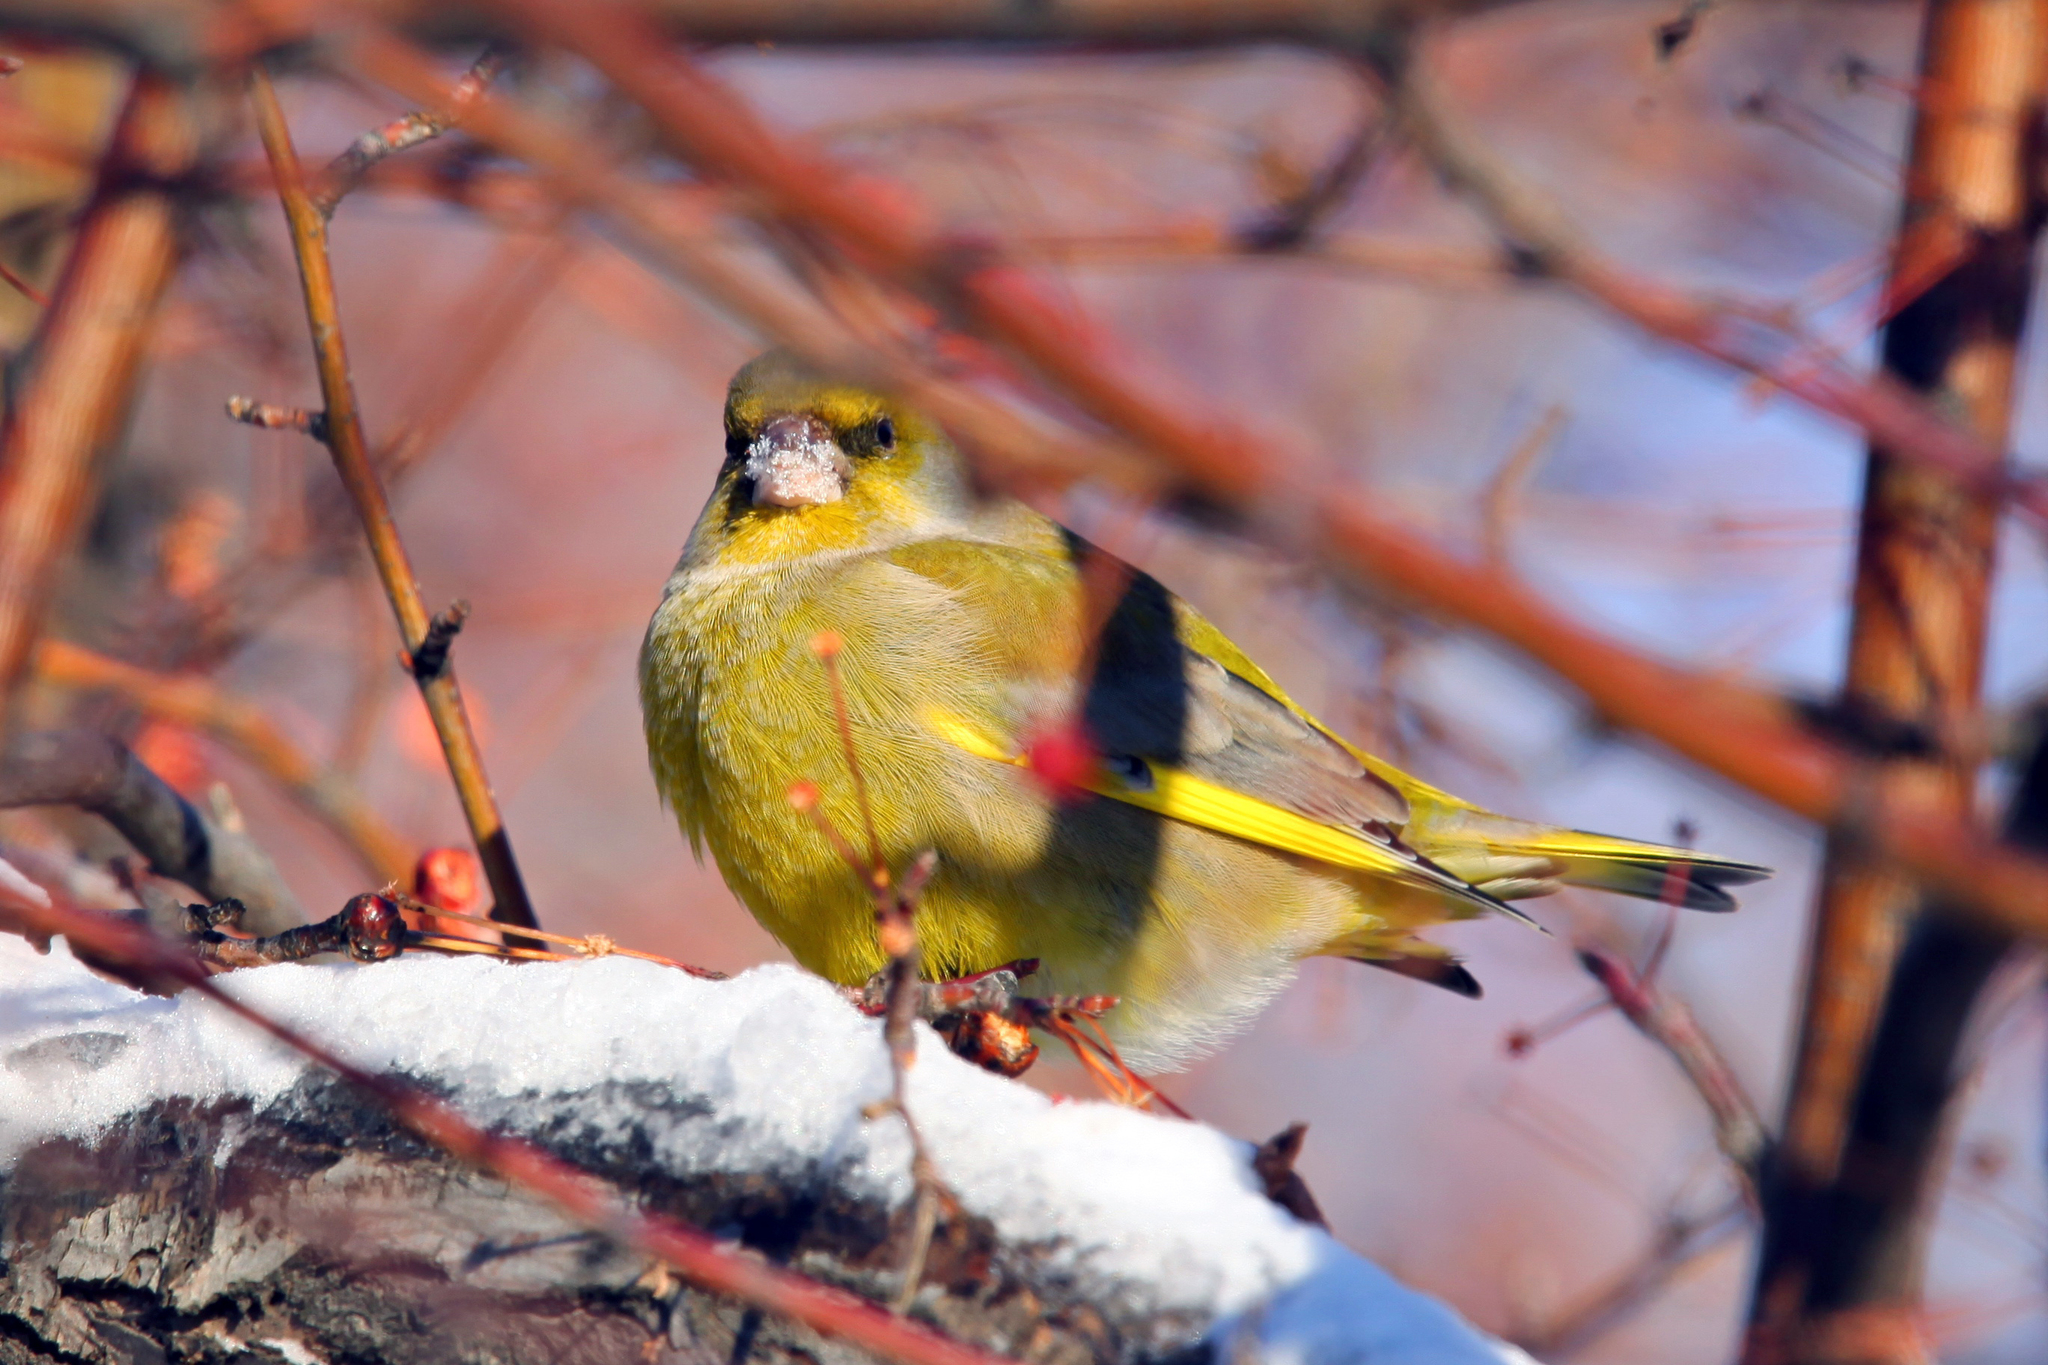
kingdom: Plantae
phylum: Tracheophyta
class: Liliopsida
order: Poales
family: Poaceae
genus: Chloris
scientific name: Chloris chloris
